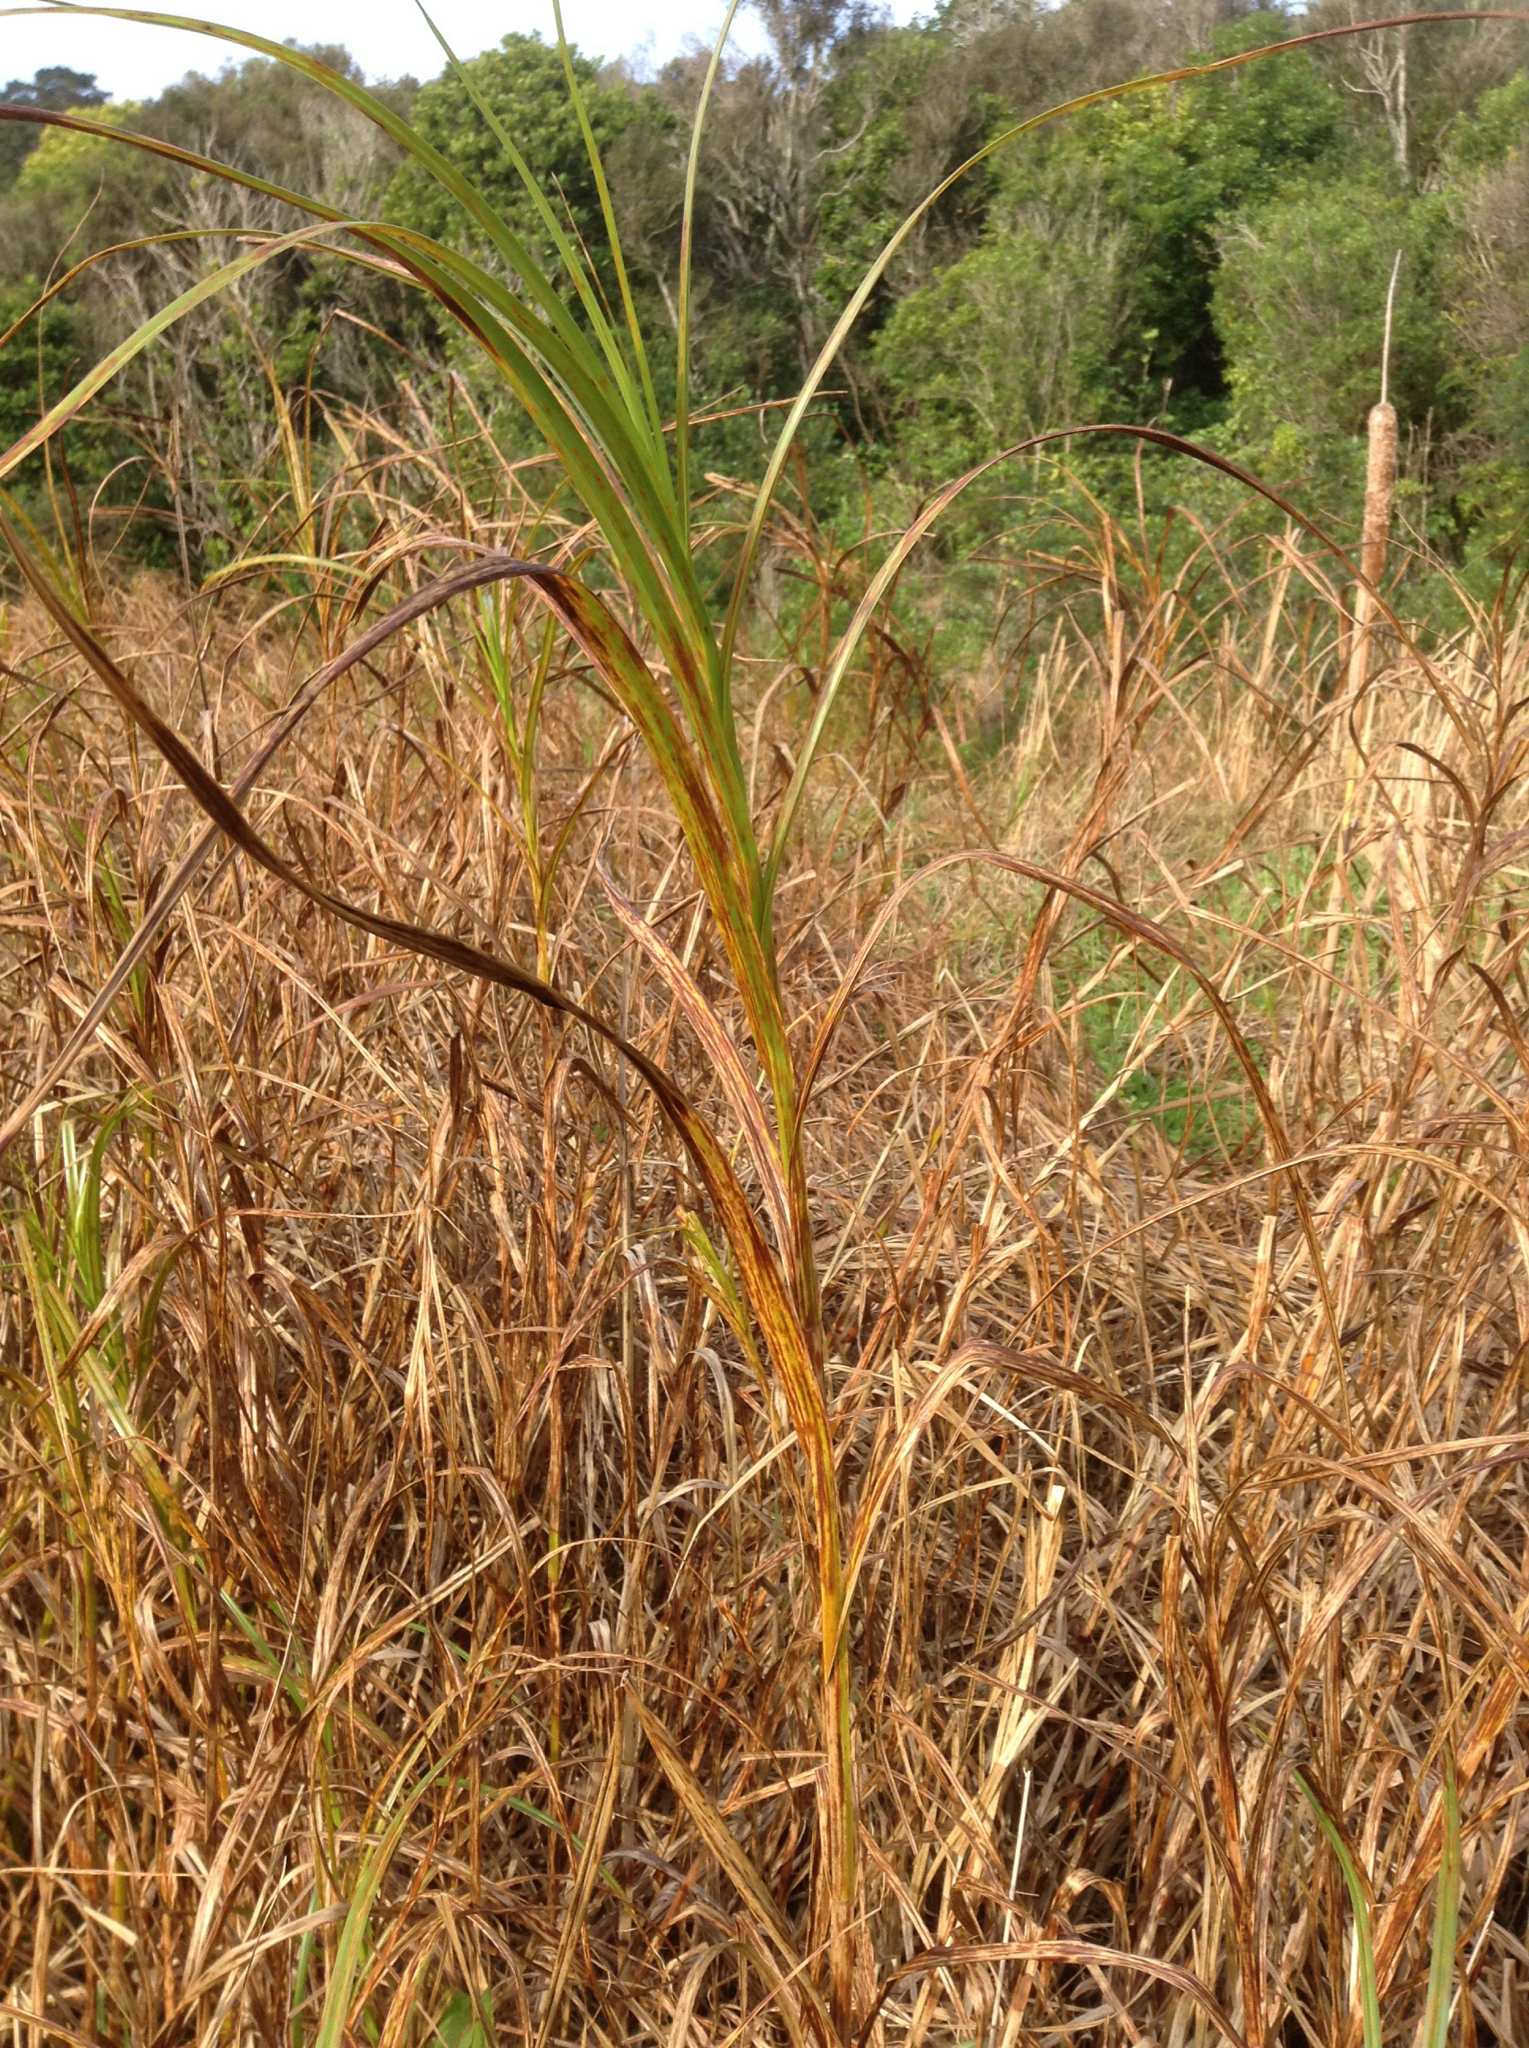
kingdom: Plantae
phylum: Tracheophyta
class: Liliopsida
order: Poales
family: Cyperaceae
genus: Bolboschoenus
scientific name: Bolboschoenus fluviatilis
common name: River bulrush
